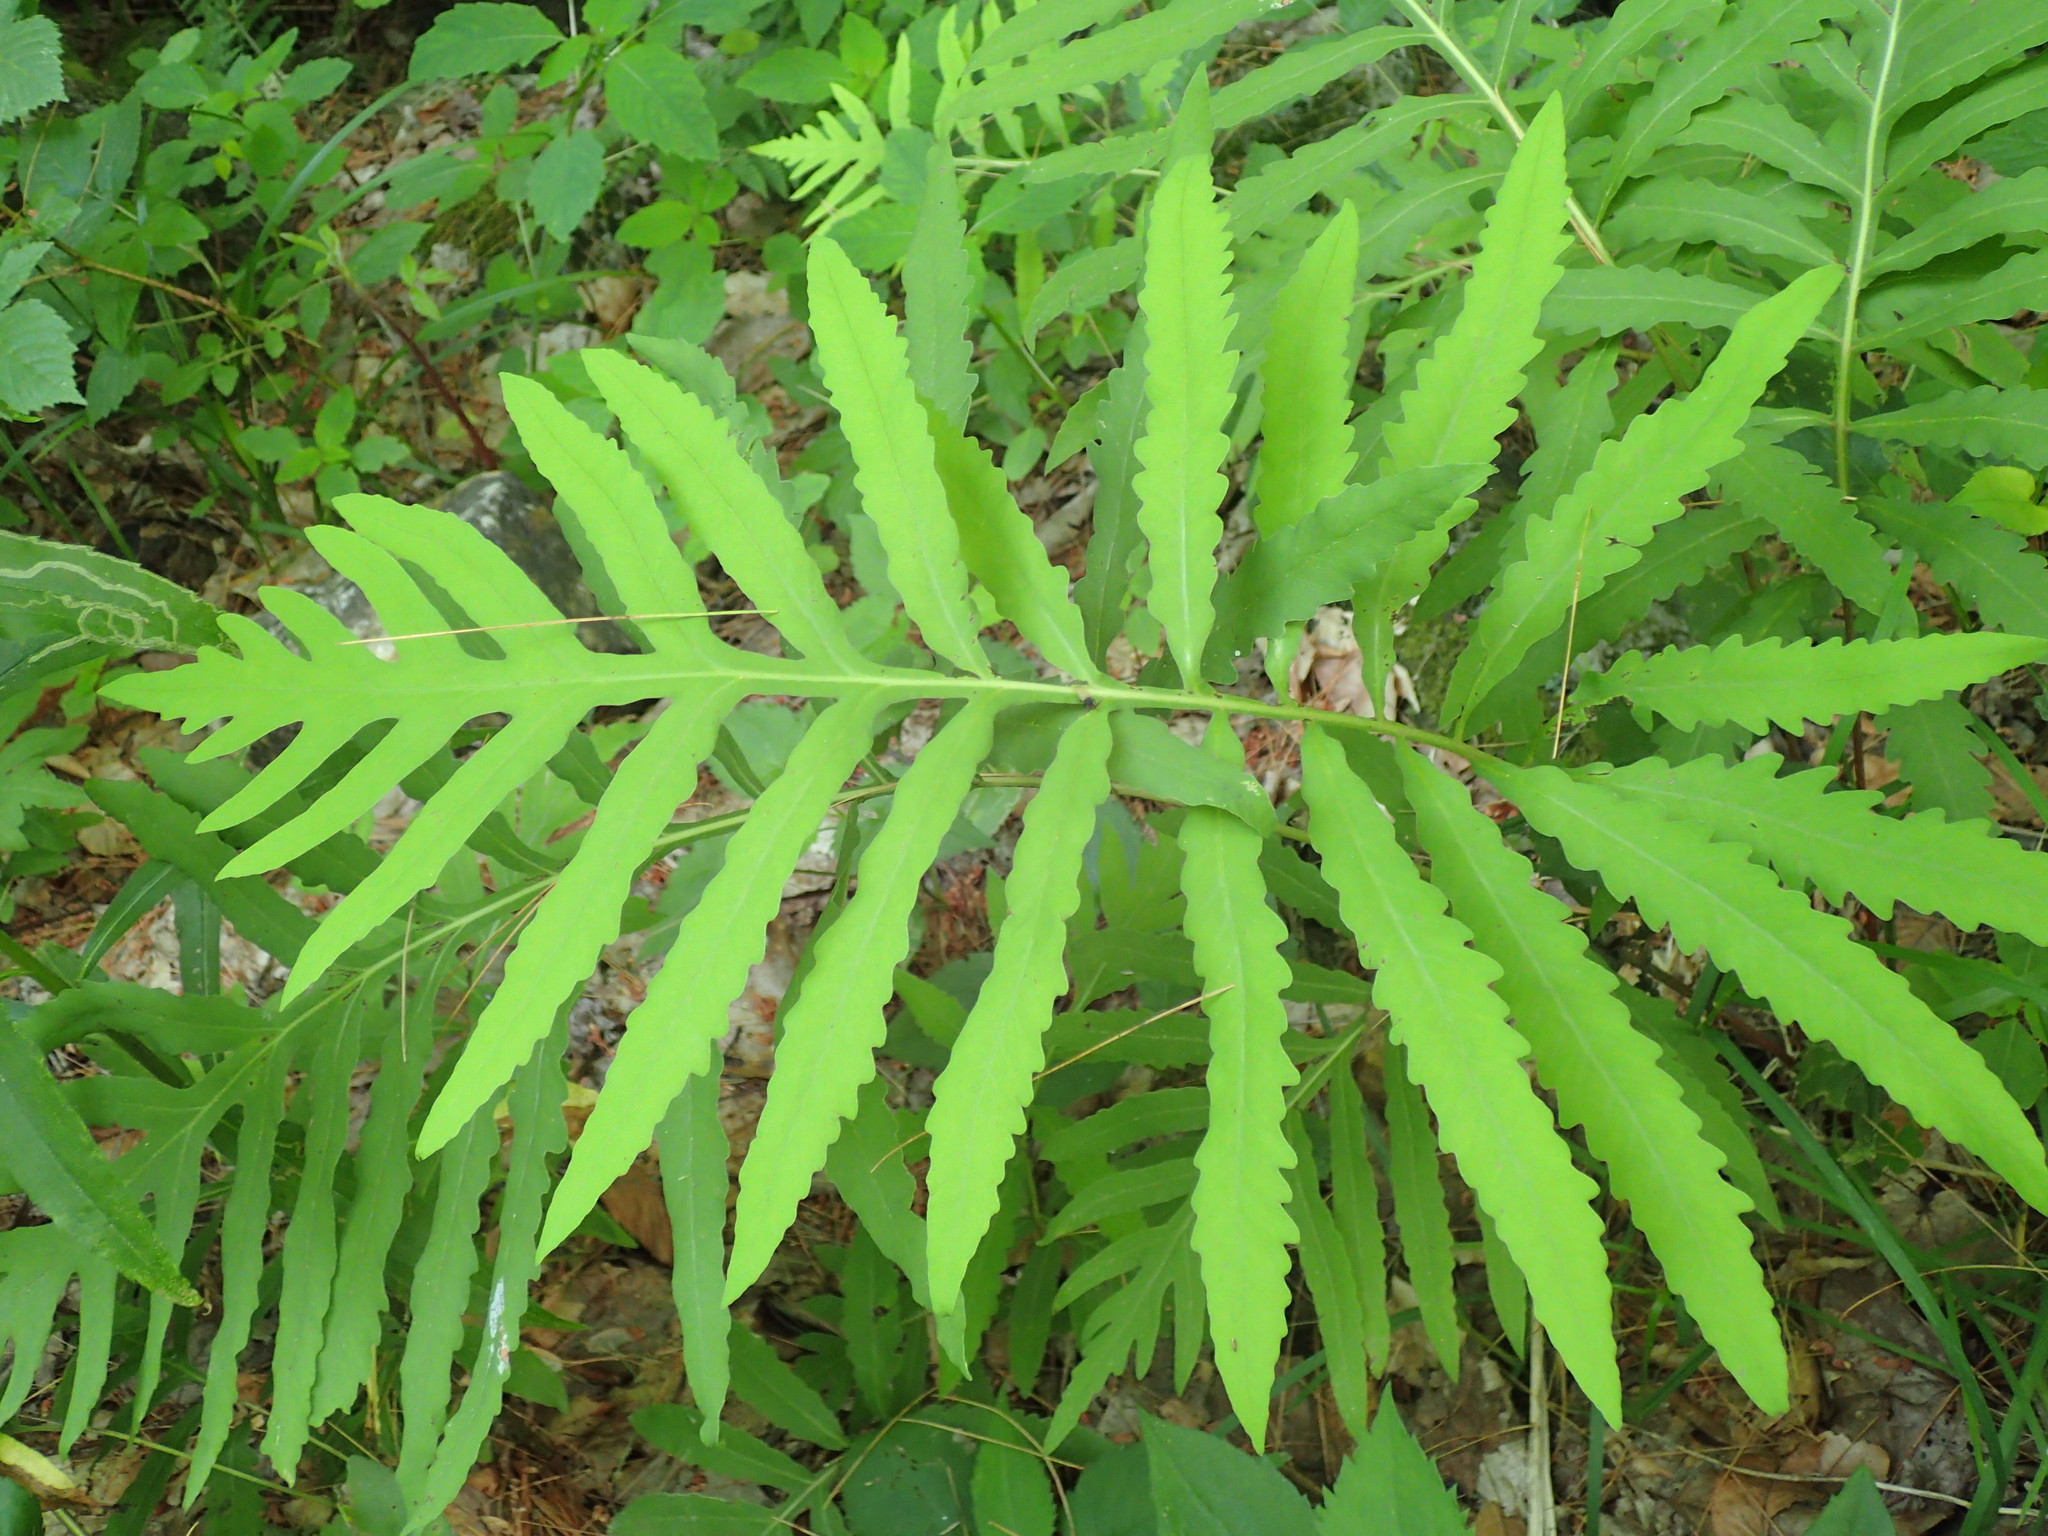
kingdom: Plantae
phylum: Tracheophyta
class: Polypodiopsida
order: Polypodiales
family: Onocleaceae
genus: Onoclea
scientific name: Onoclea sensibilis
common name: Sensitive fern
